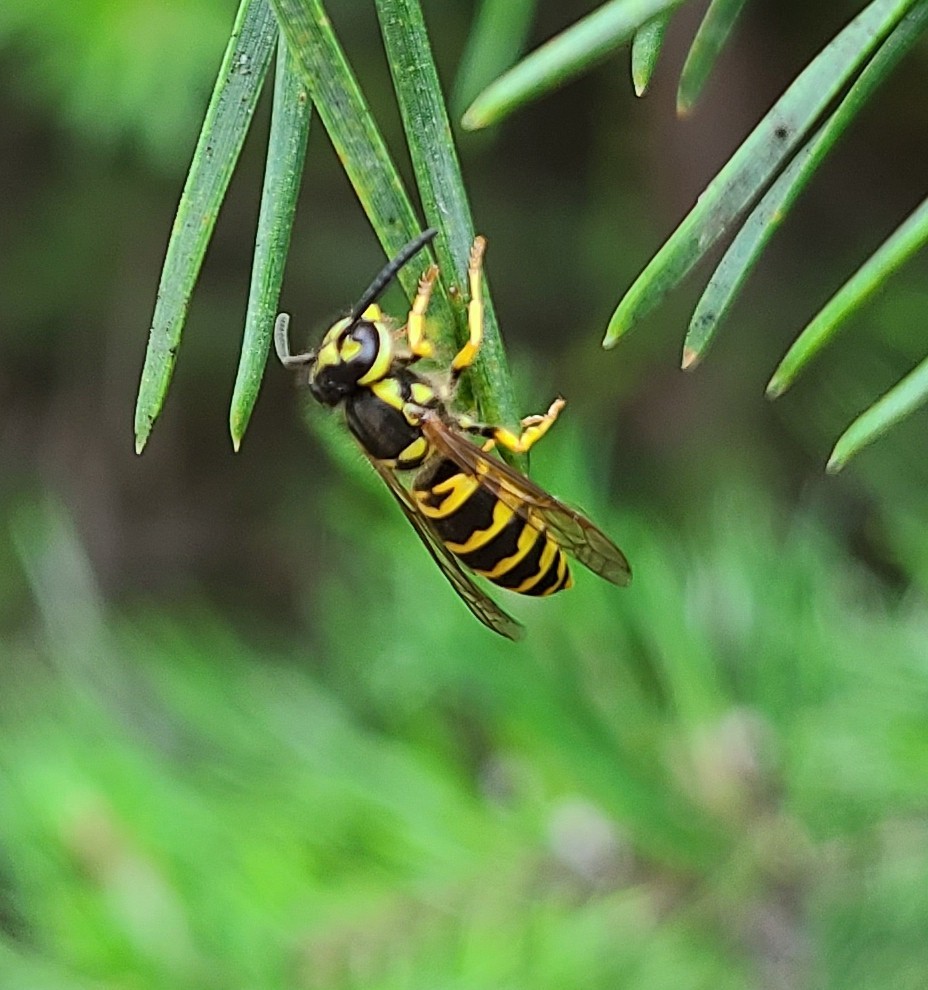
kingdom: Animalia
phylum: Arthropoda
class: Insecta
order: Hymenoptera
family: Vespidae
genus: Vespula
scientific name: Vespula maculifrons
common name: Eastern yellowjacket
